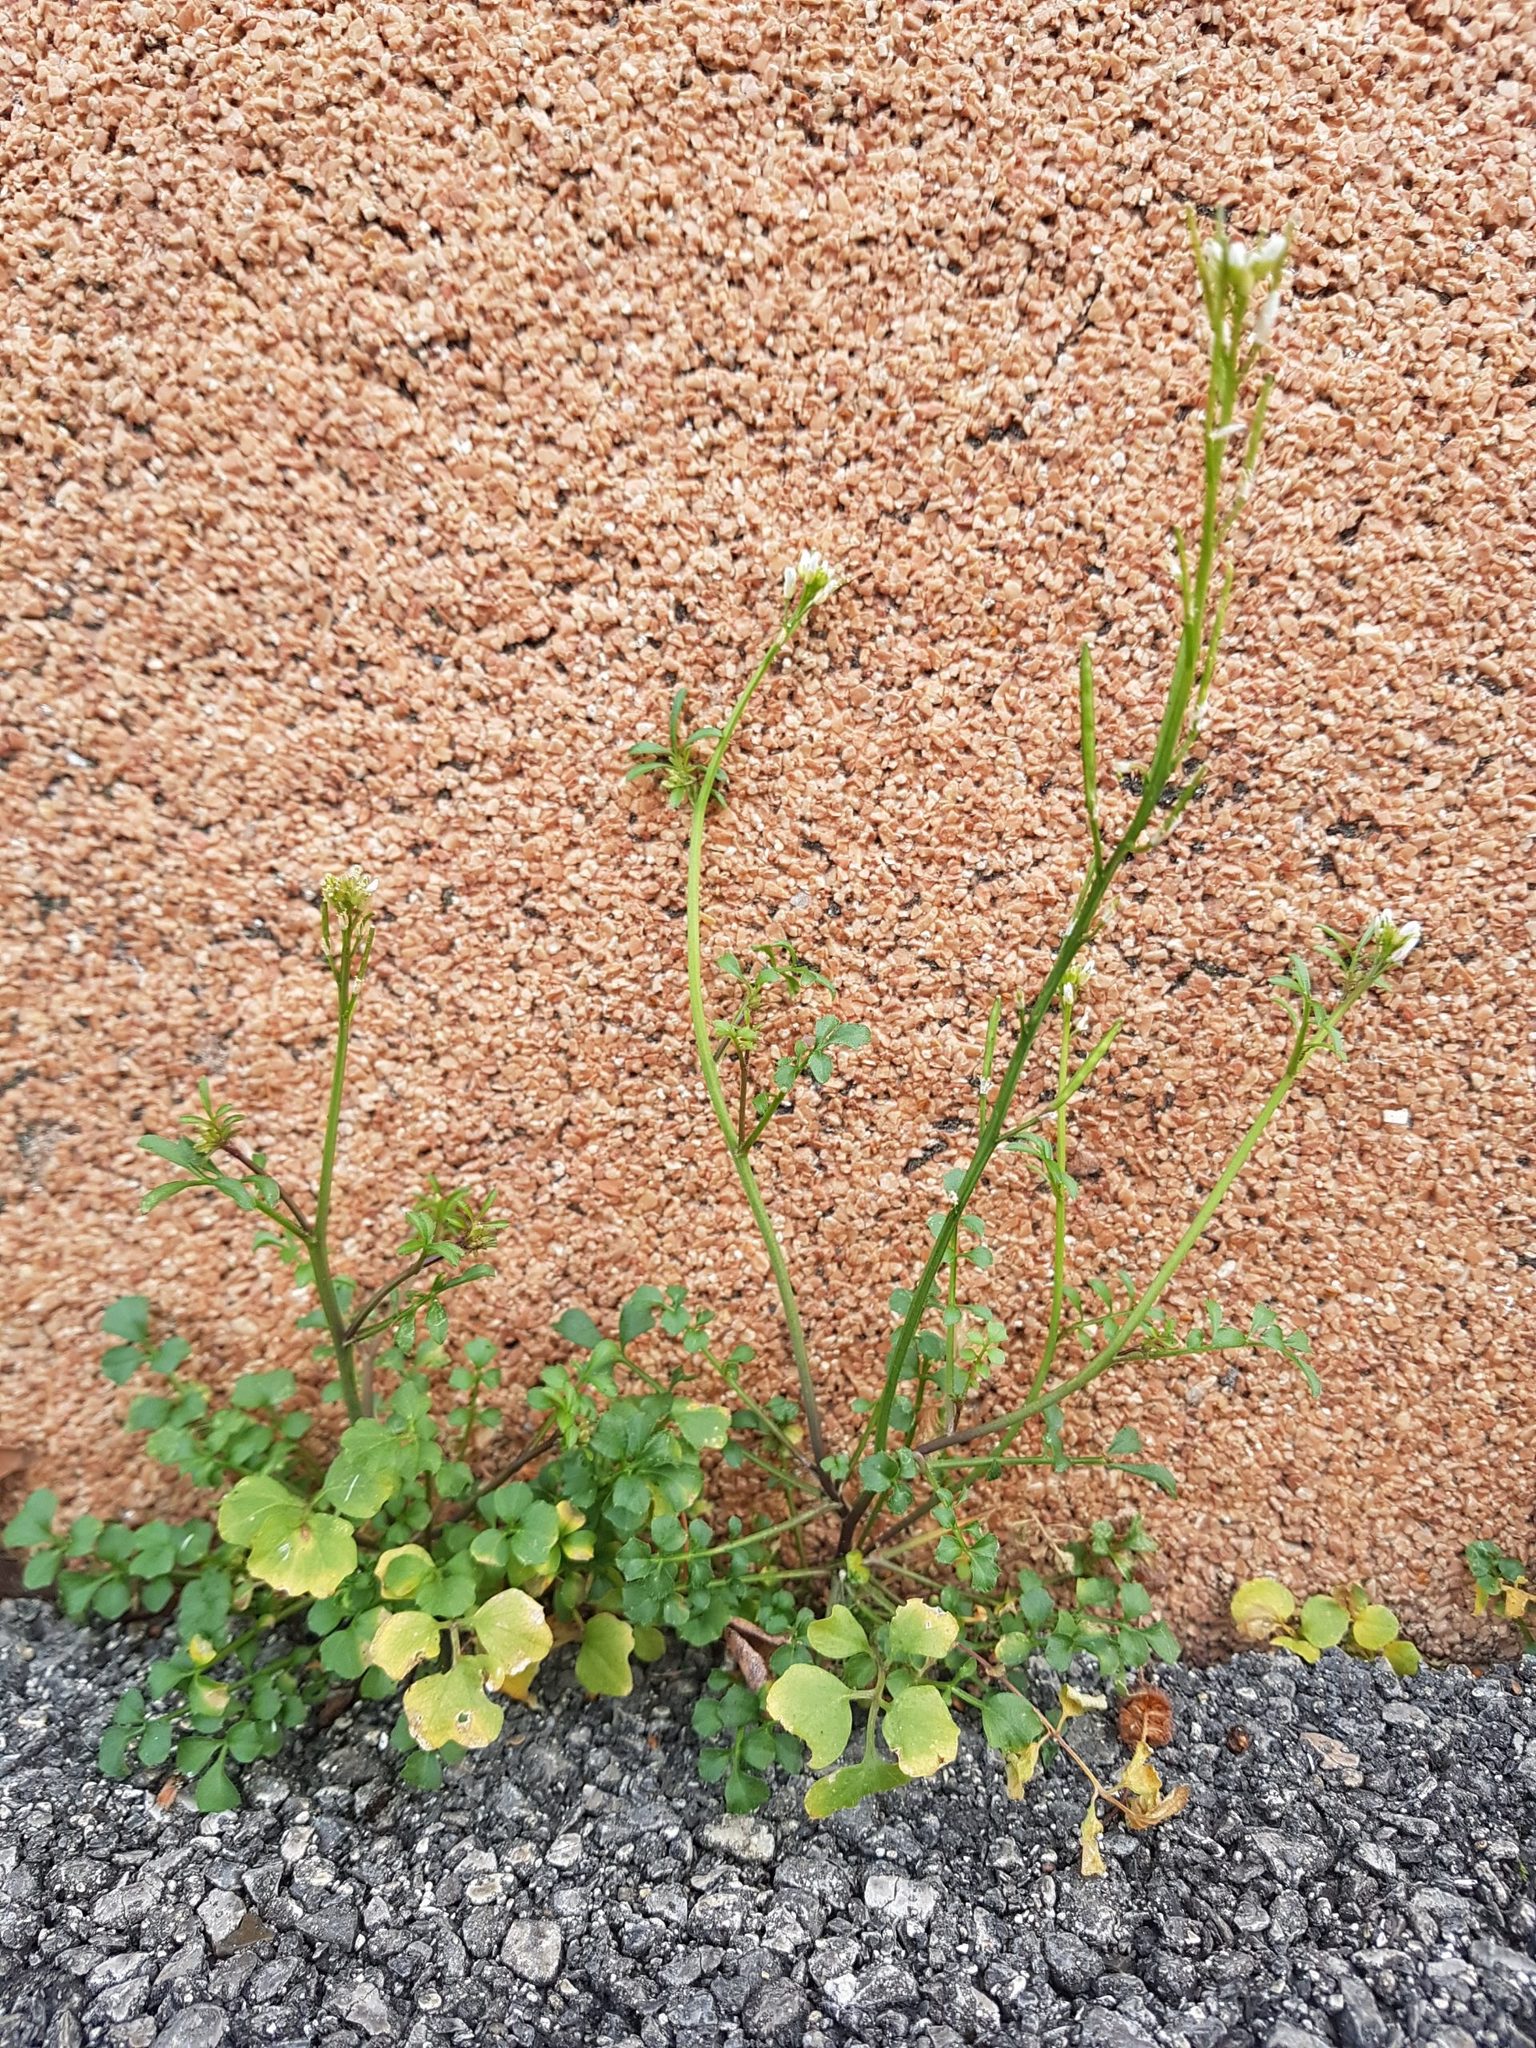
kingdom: Plantae
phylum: Tracheophyta
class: Magnoliopsida
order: Brassicales
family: Brassicaceae
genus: Cardamine
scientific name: Cardamine hirsuta
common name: Hairy bittercress
